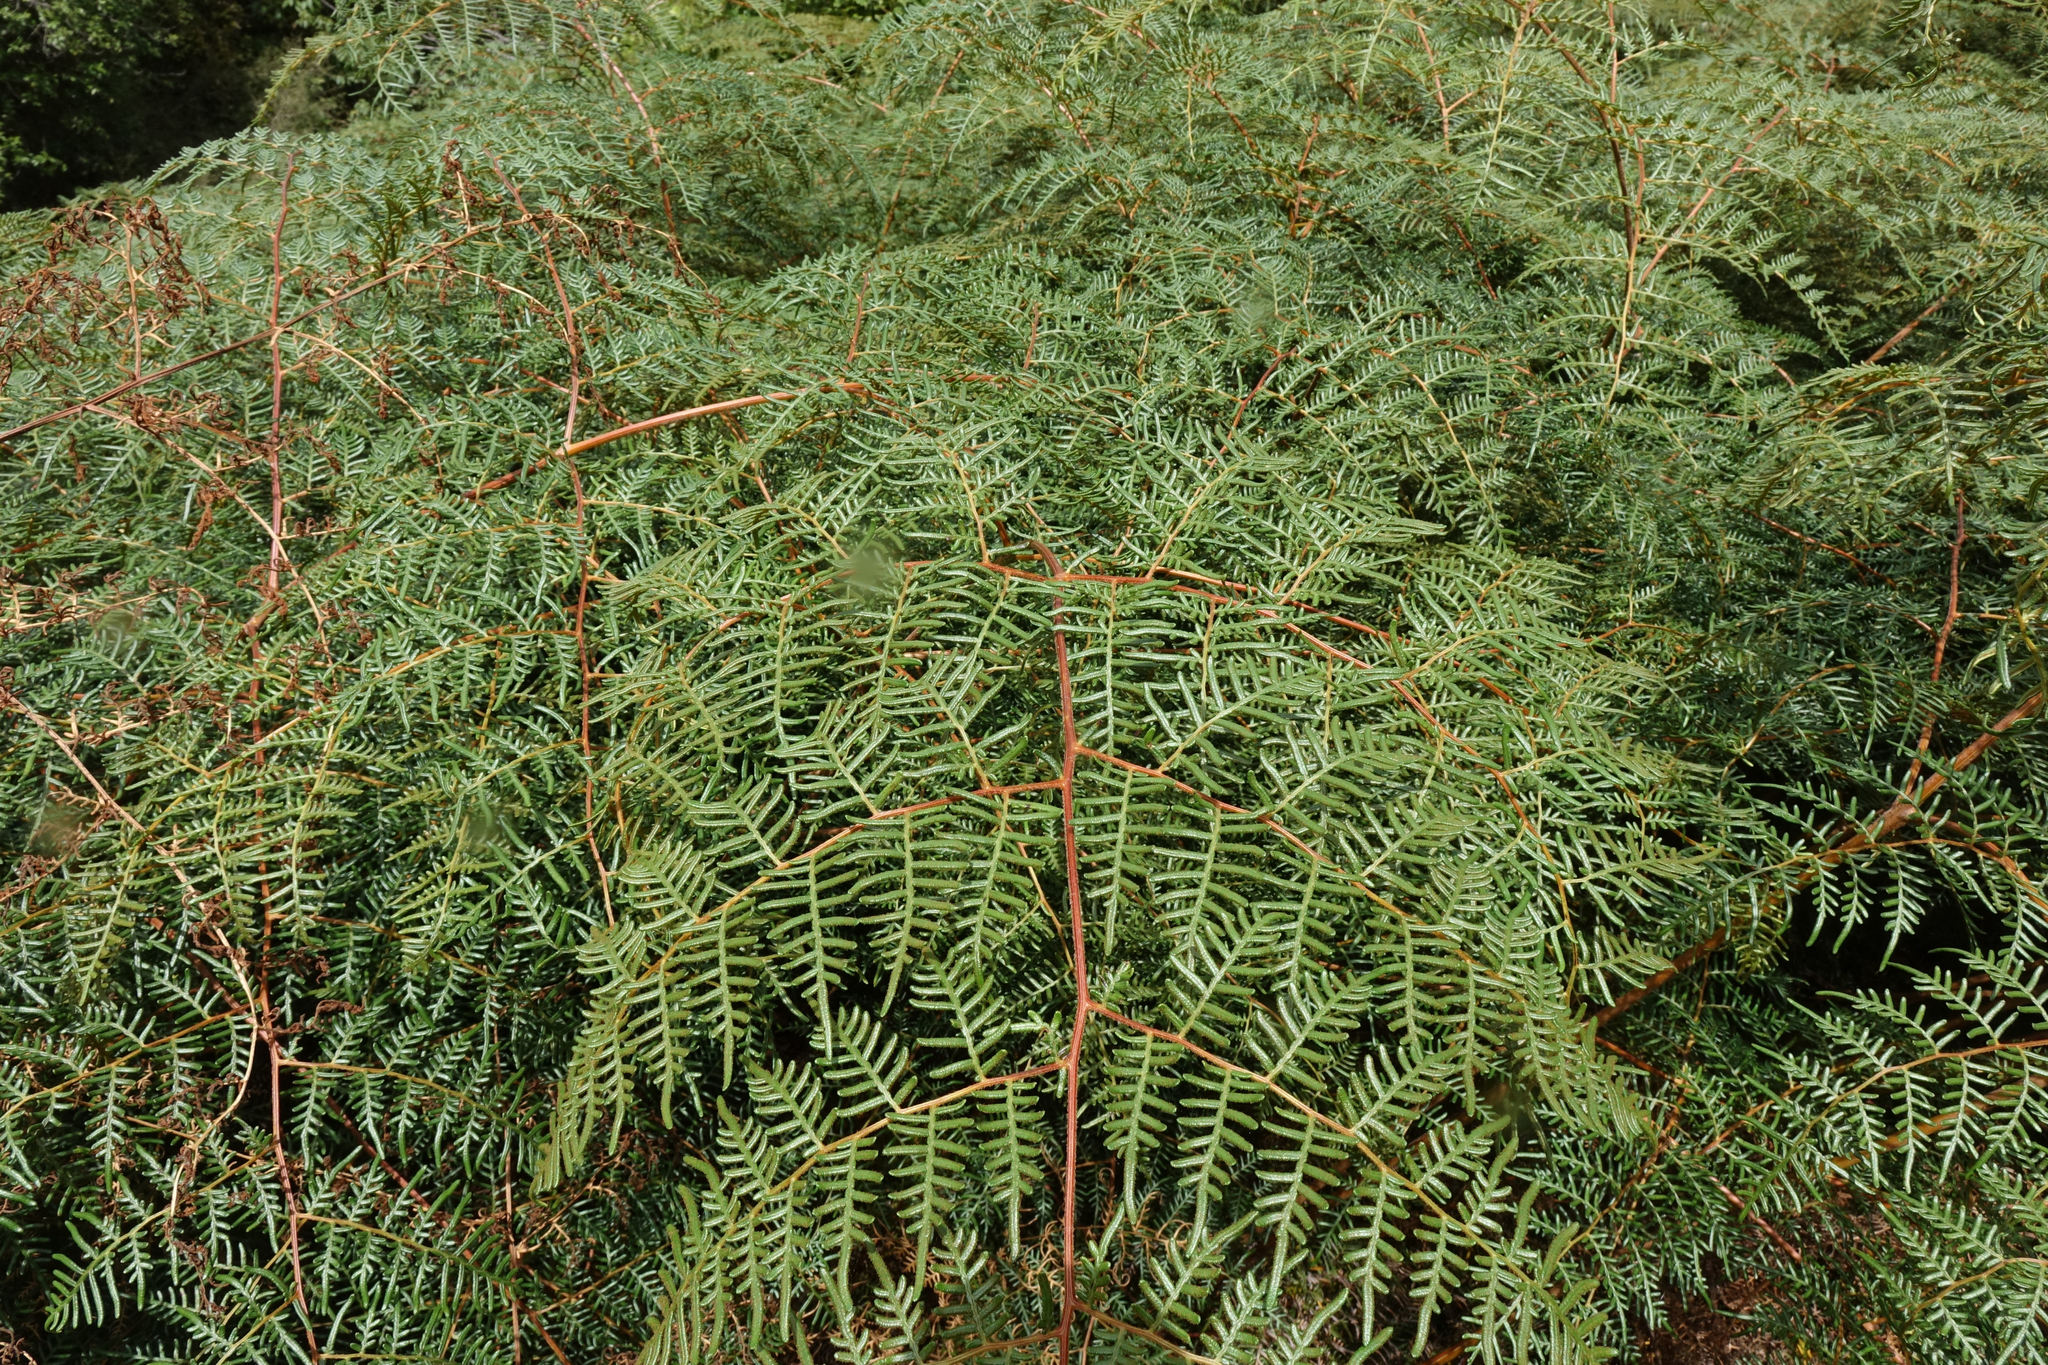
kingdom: Plantae
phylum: Tracheophyta
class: Polypodiopsida
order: Polypodiales
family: Dennstaedtiaceae
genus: Pteridium
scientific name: Pteridium esculentum
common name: Bracken fern
